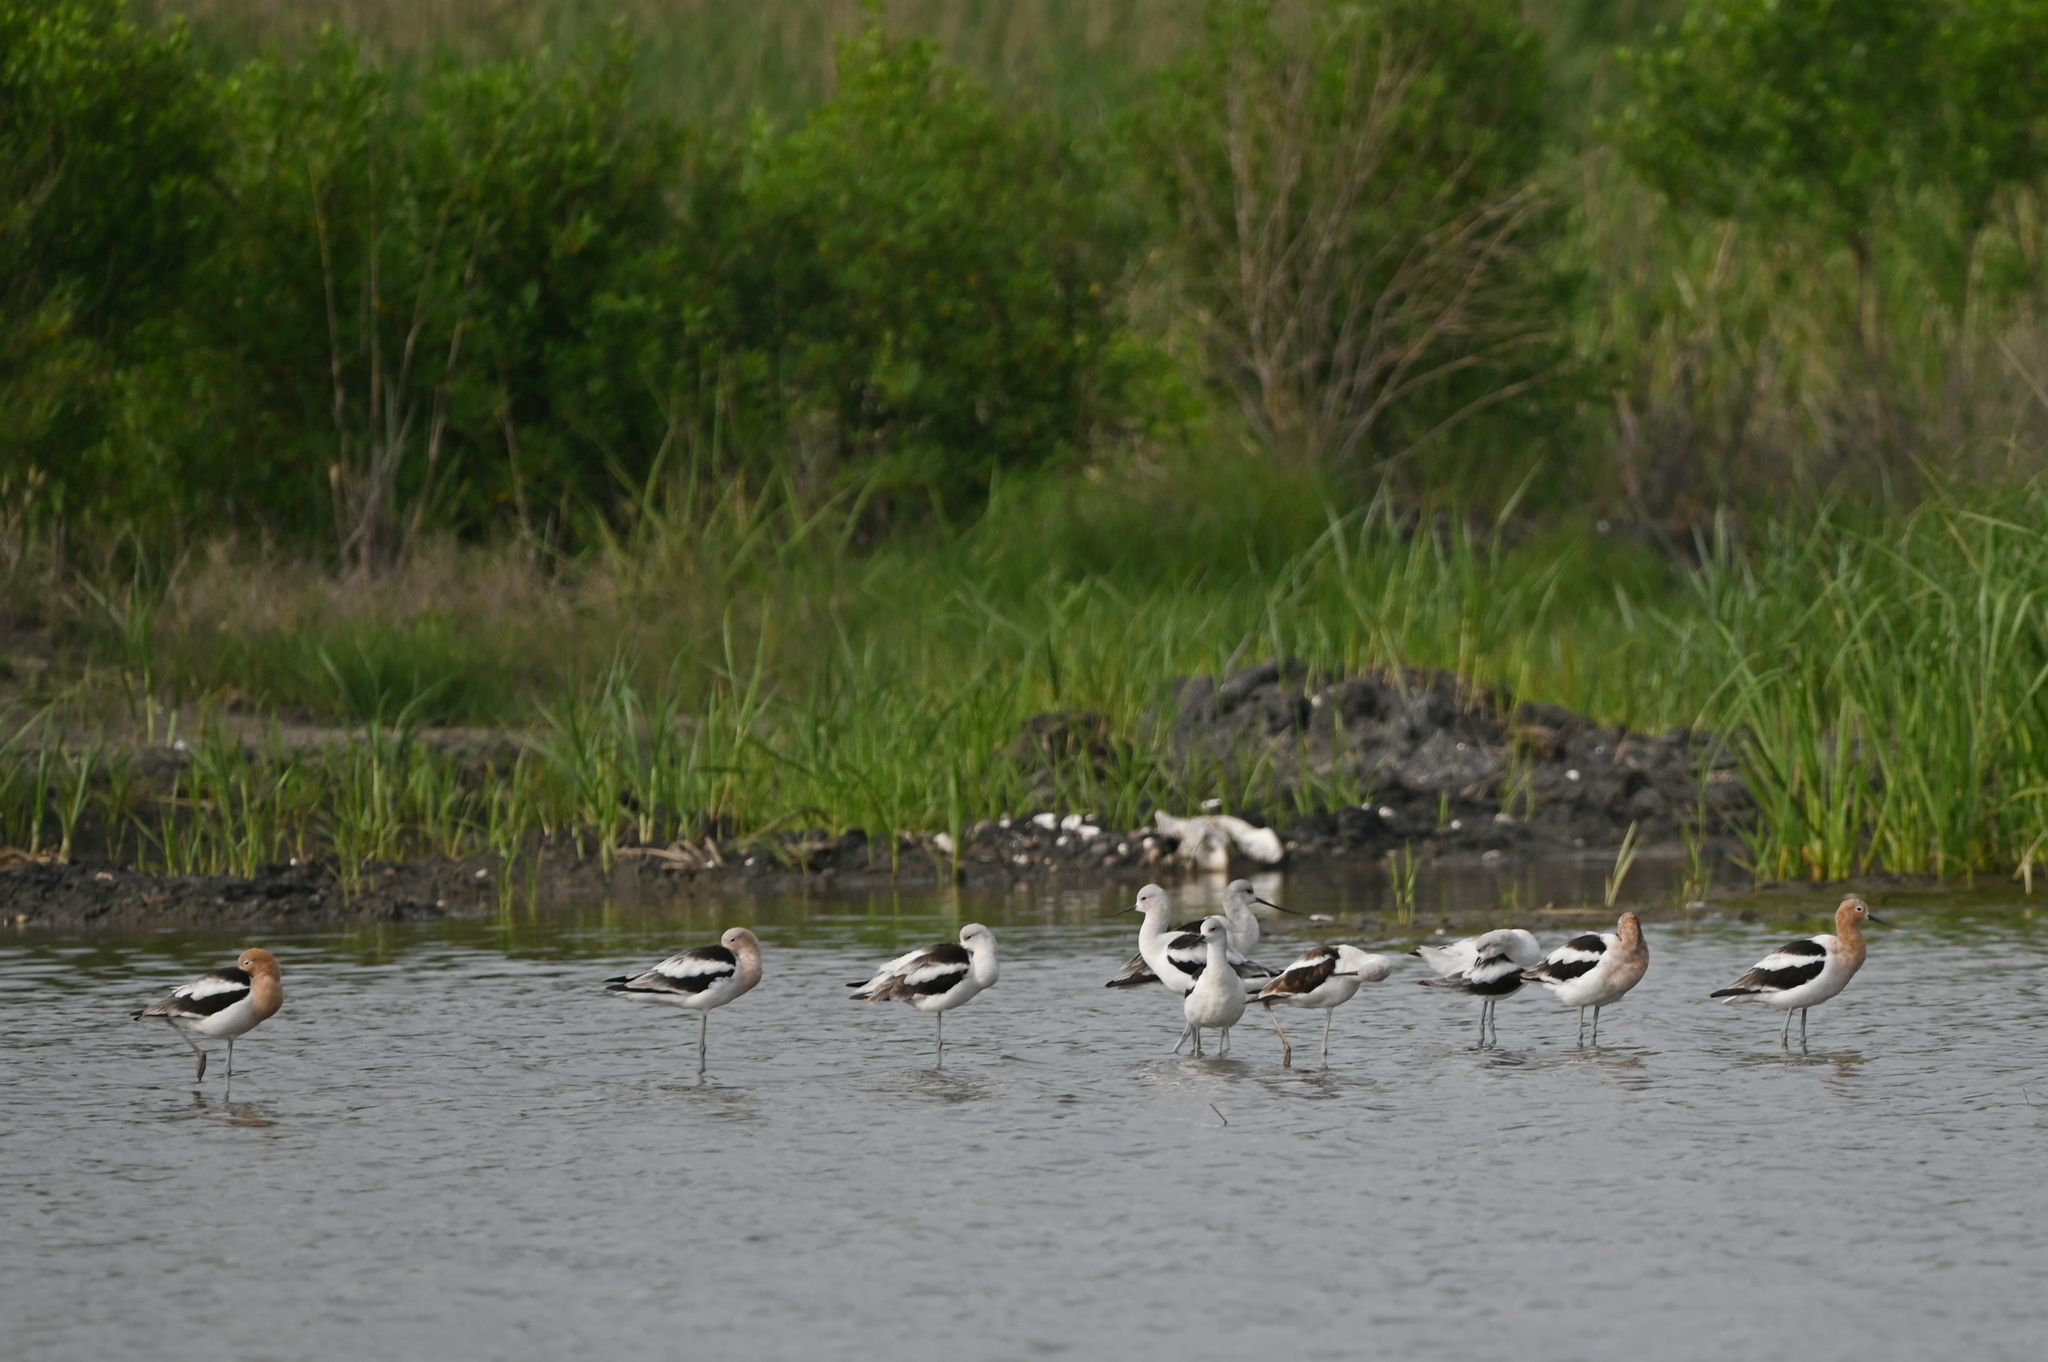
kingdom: Animalia
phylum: Chordata
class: Aves
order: Charadriiformes
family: Recurvirostridae
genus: Recurvirostra
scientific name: Recurvirostra americana
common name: American avocet
